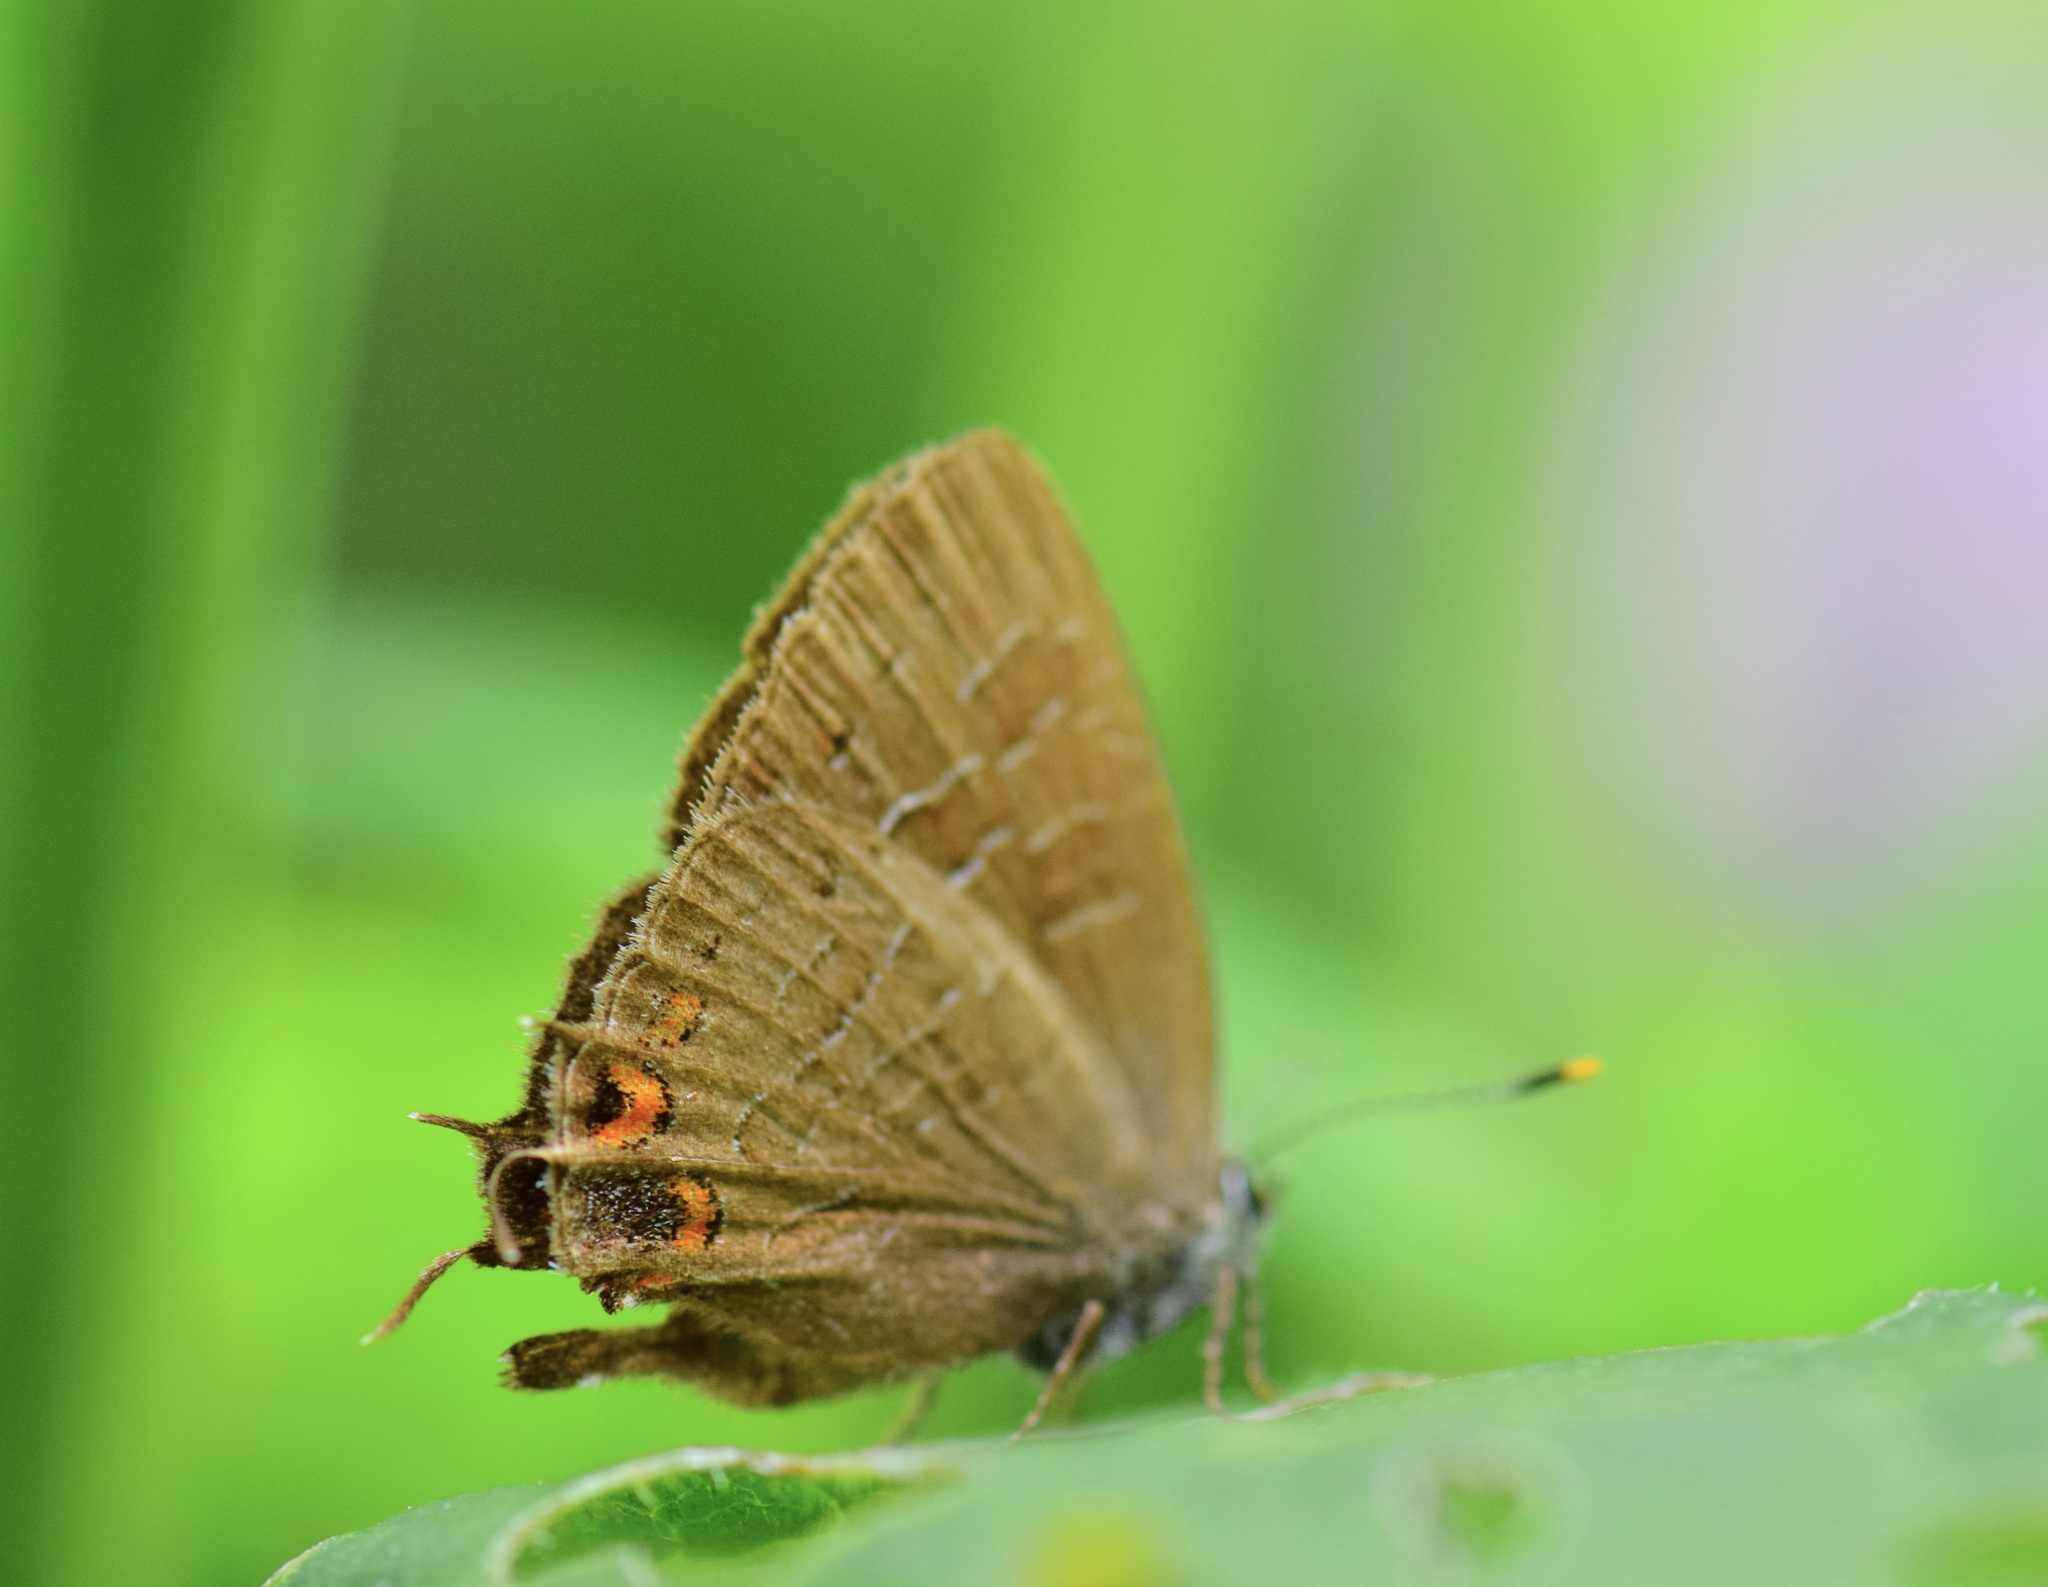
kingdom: Animalia
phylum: Arthropoda
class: Insecta
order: Lepidoptera
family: Lycaenidae
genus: Satyrium
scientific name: Satyrium liparops
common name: Striped hairstreak
